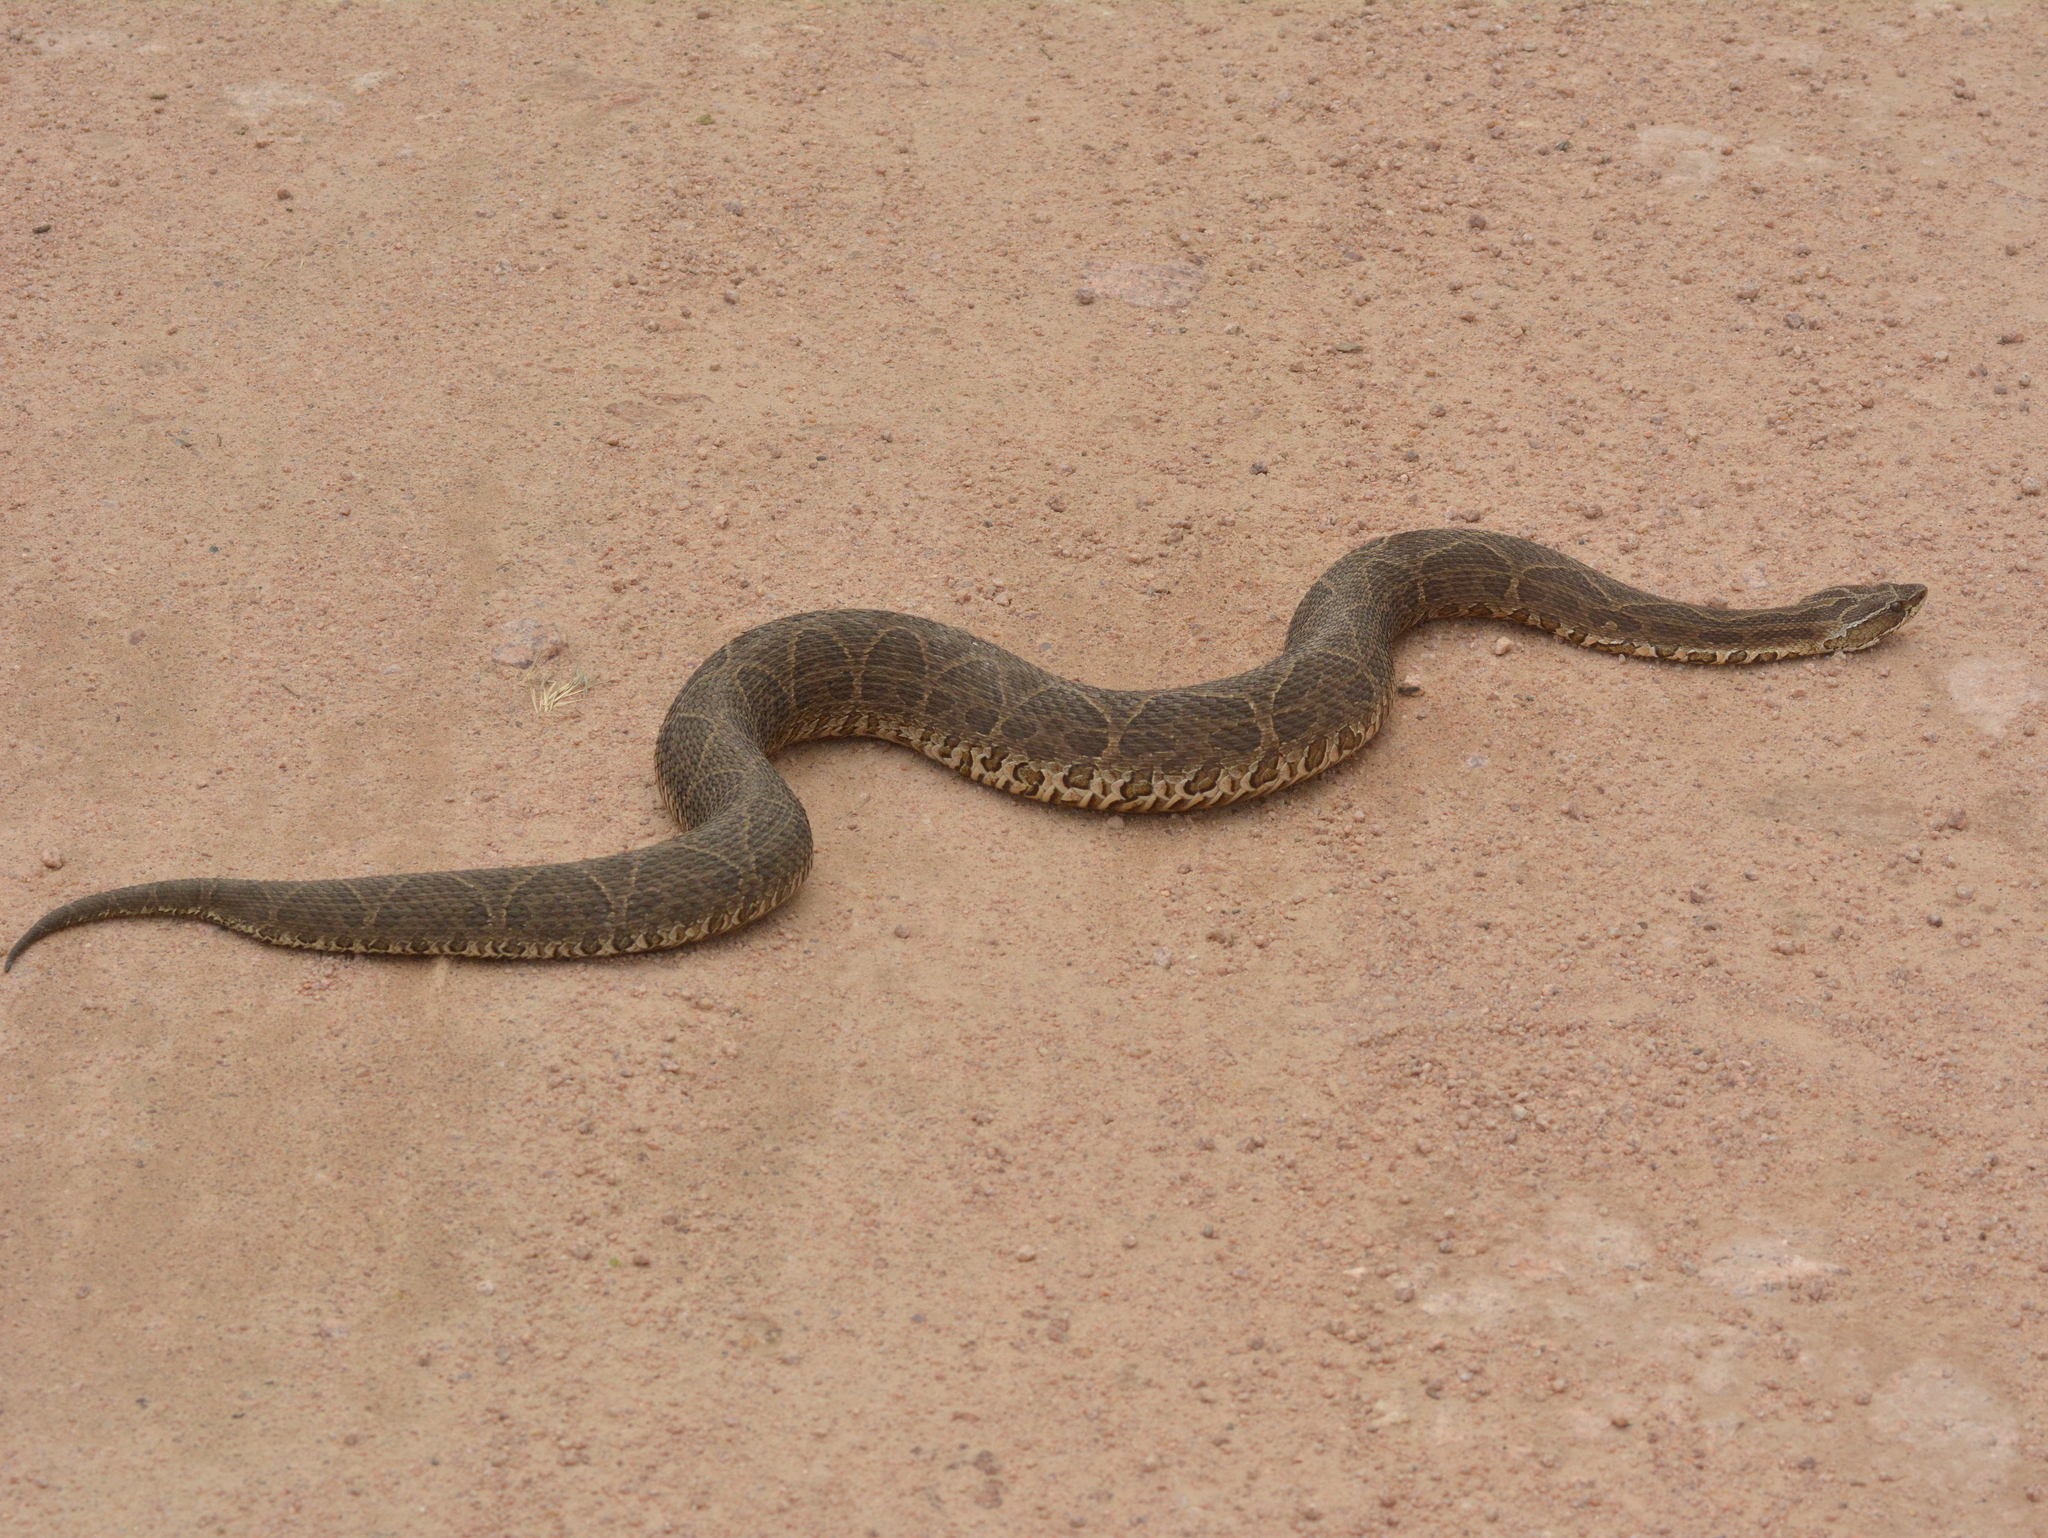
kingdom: Animalia
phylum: Chordata
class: Squamata
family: Viperidae
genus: Bothrops
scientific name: Bothrops alternatus
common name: Urutu
